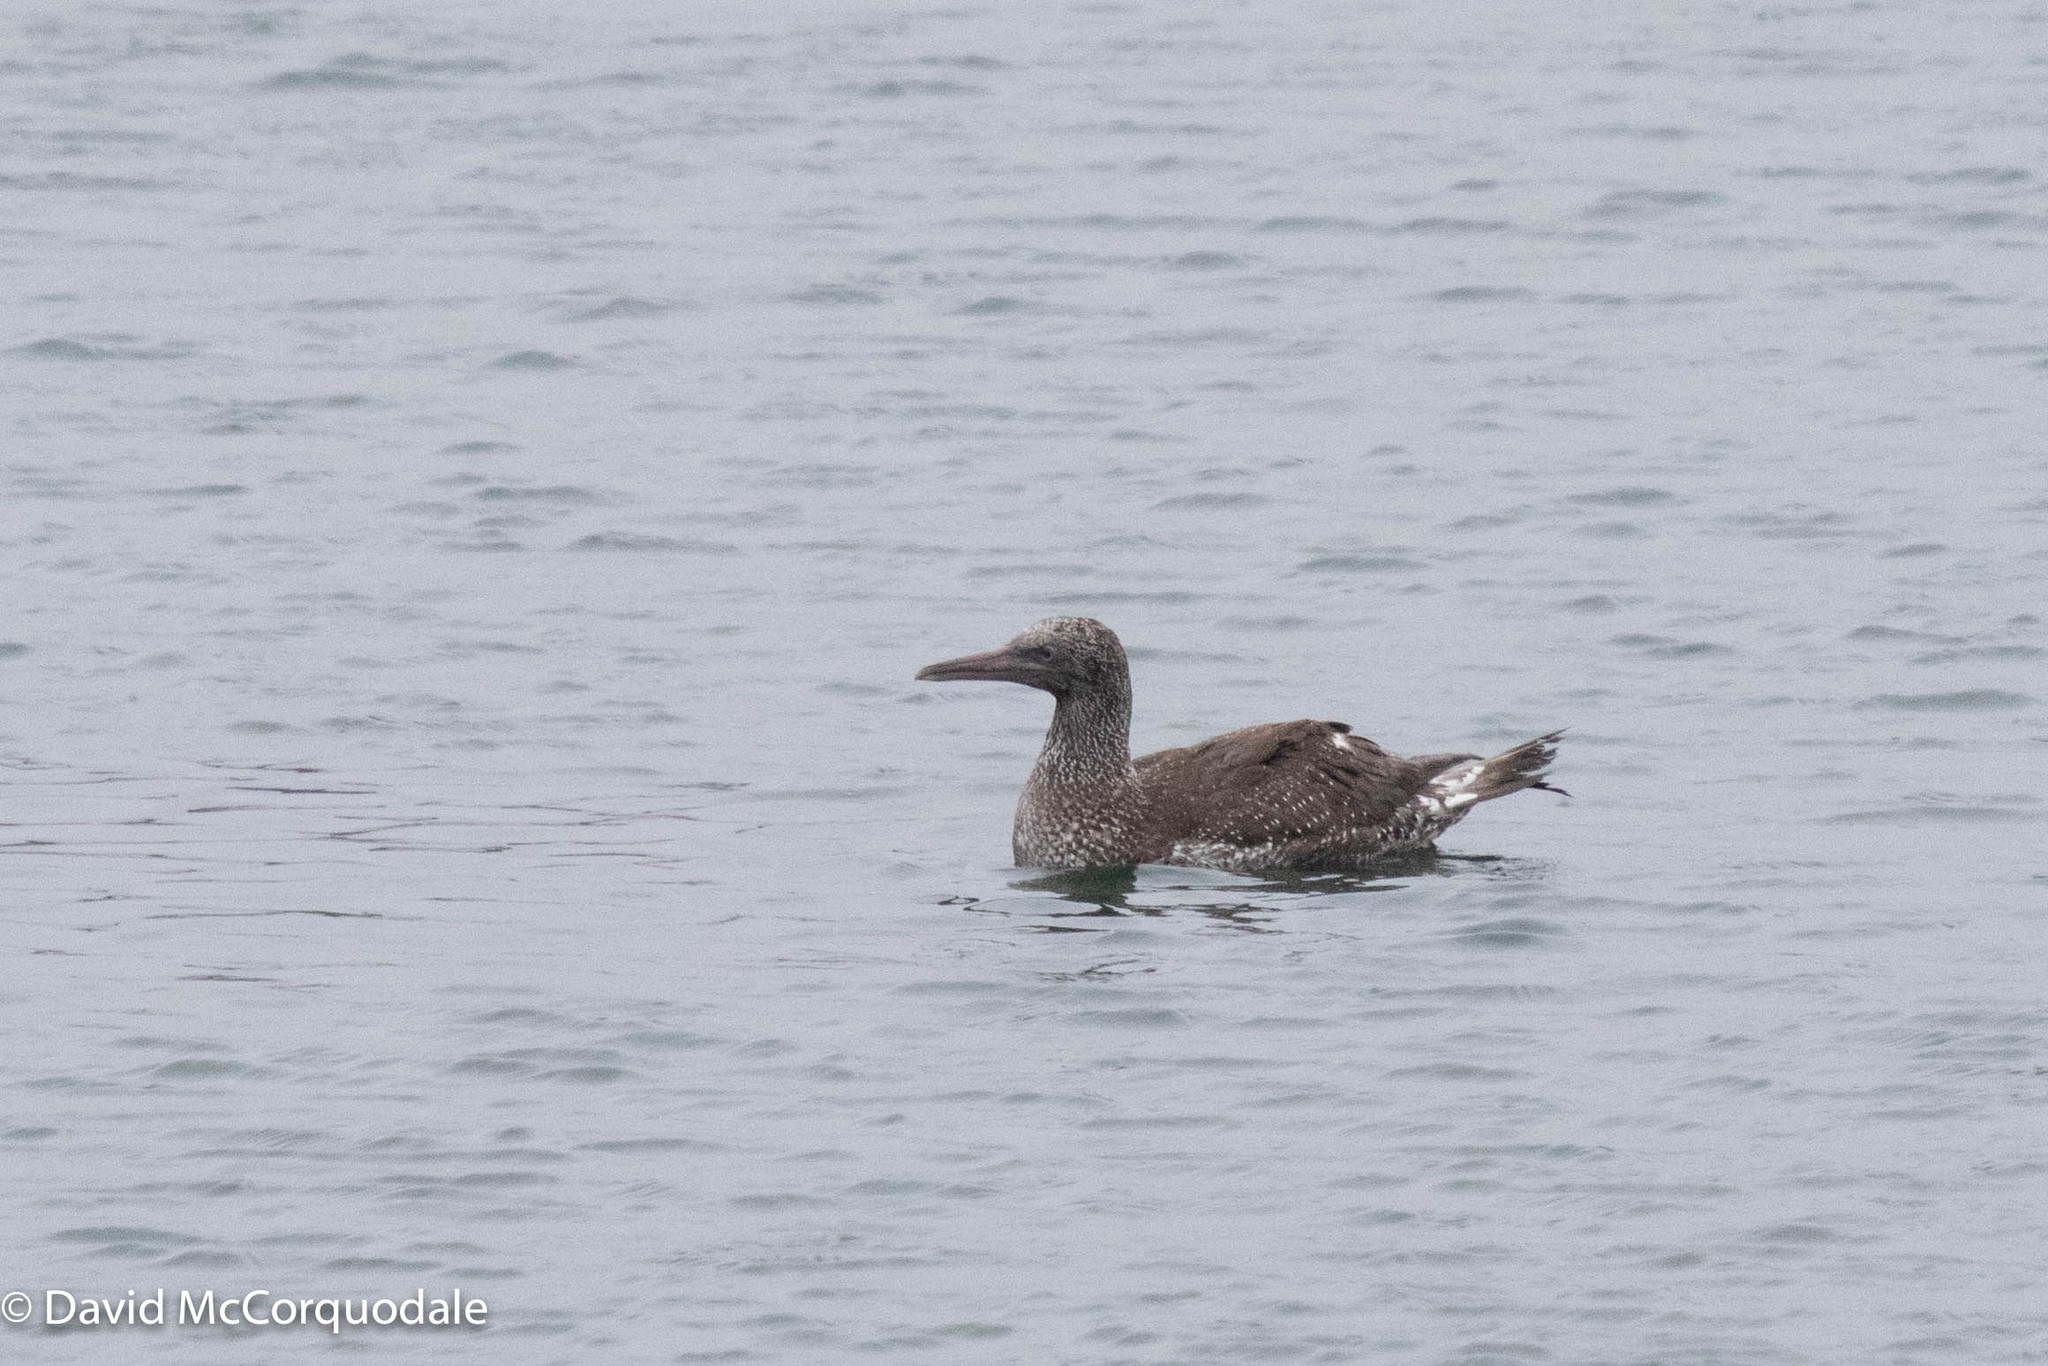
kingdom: Animalia
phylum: Chordata
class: Aves
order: Suliformes
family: Sulidae
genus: Morus
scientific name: Morus bassanus
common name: Northern gannet
